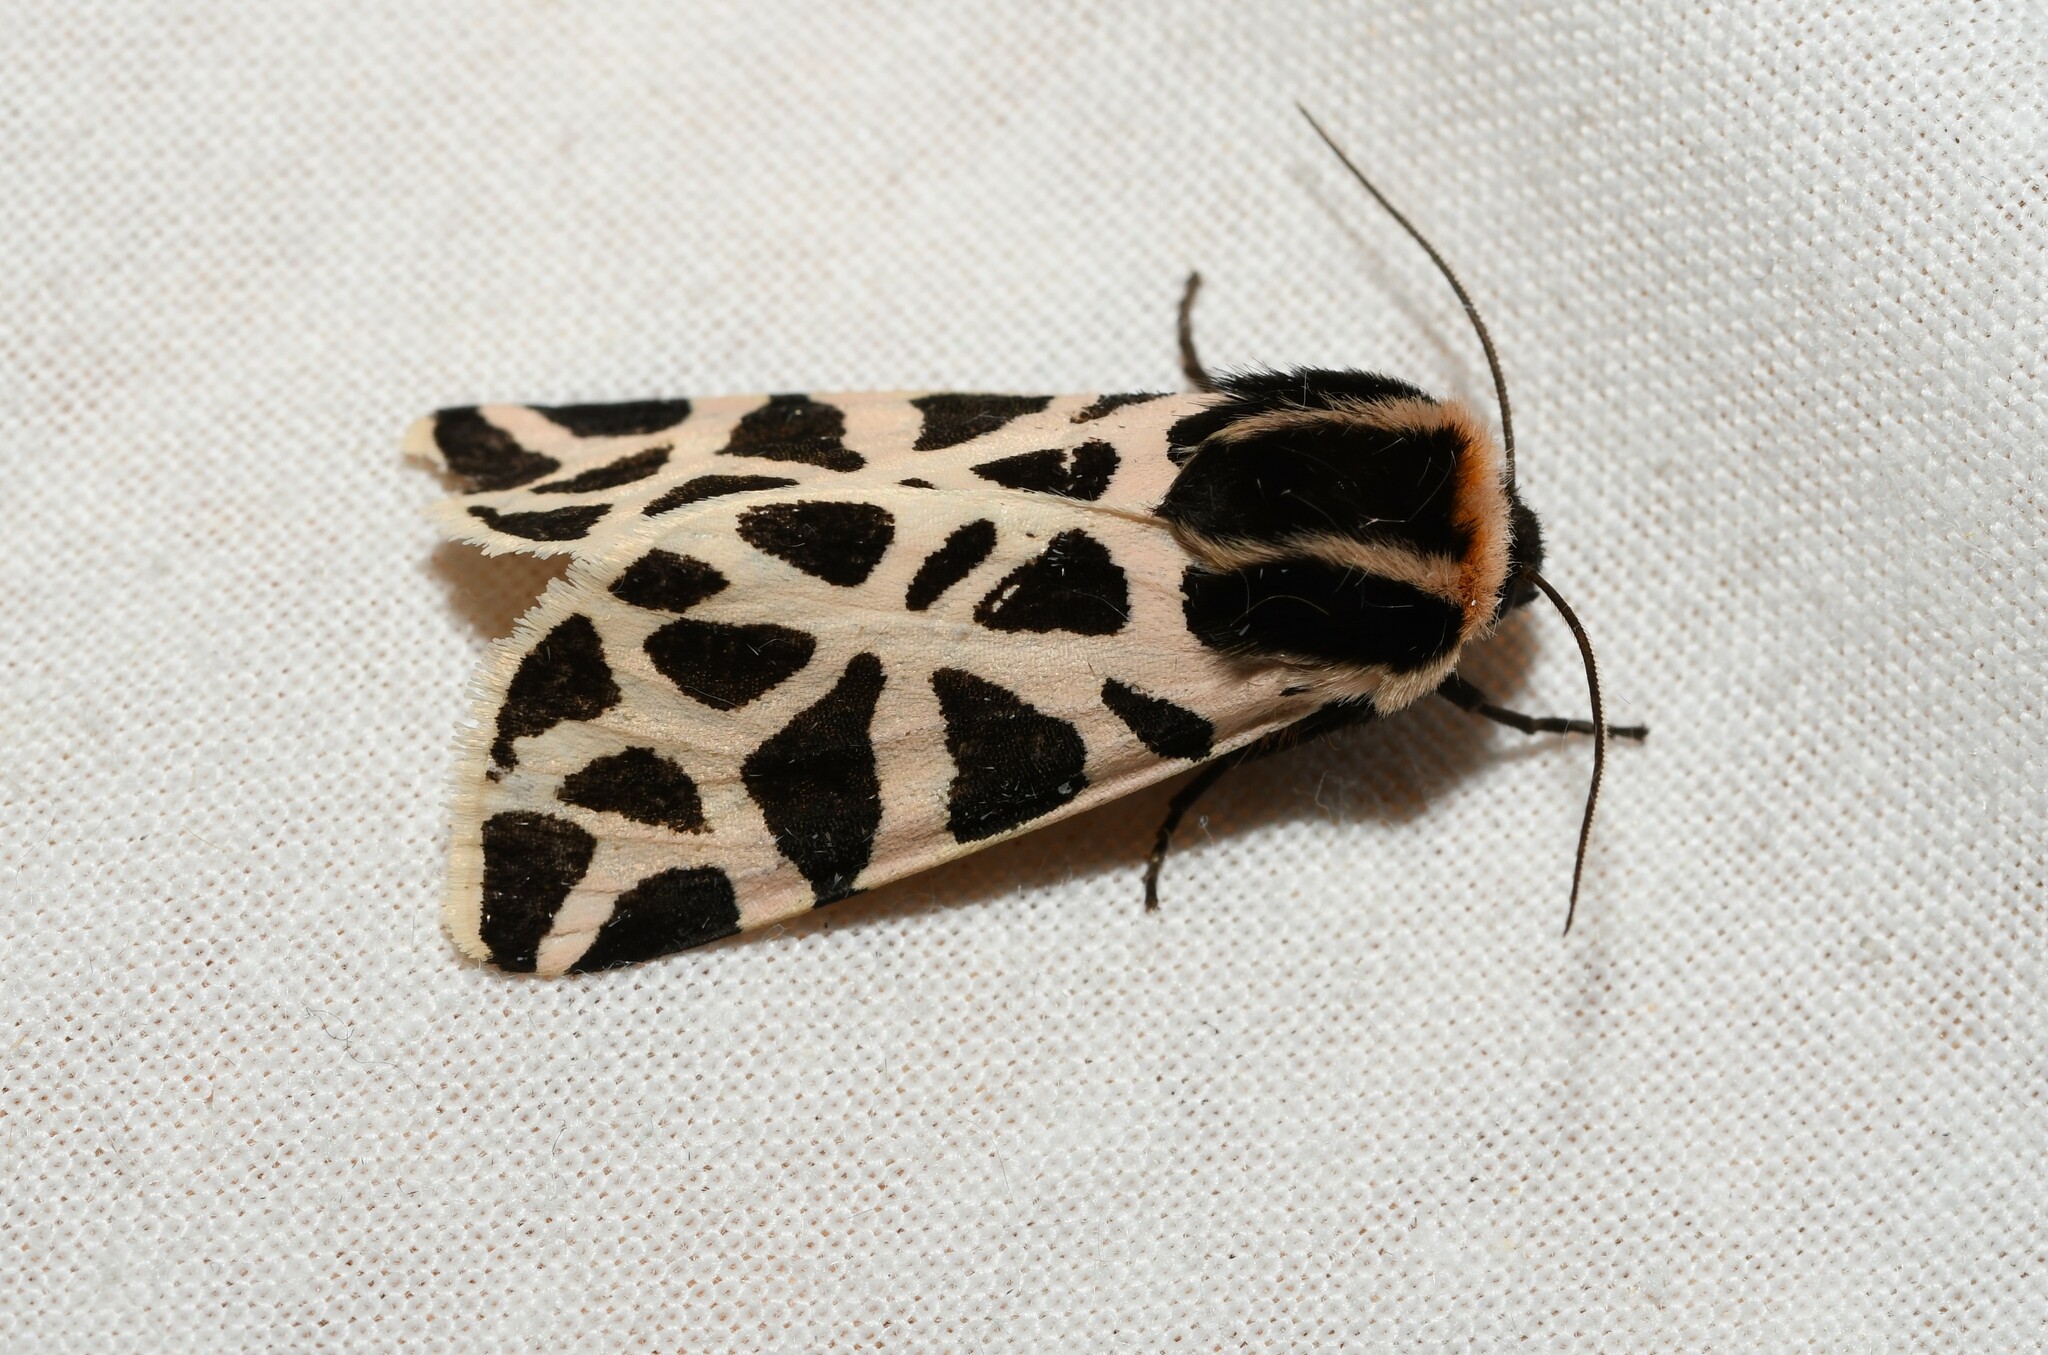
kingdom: Animalia
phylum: Arthropoda
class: Insecta
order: Lepidoptera
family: Erebidae
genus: Cymbalophora
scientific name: Cymbalophora pudica
